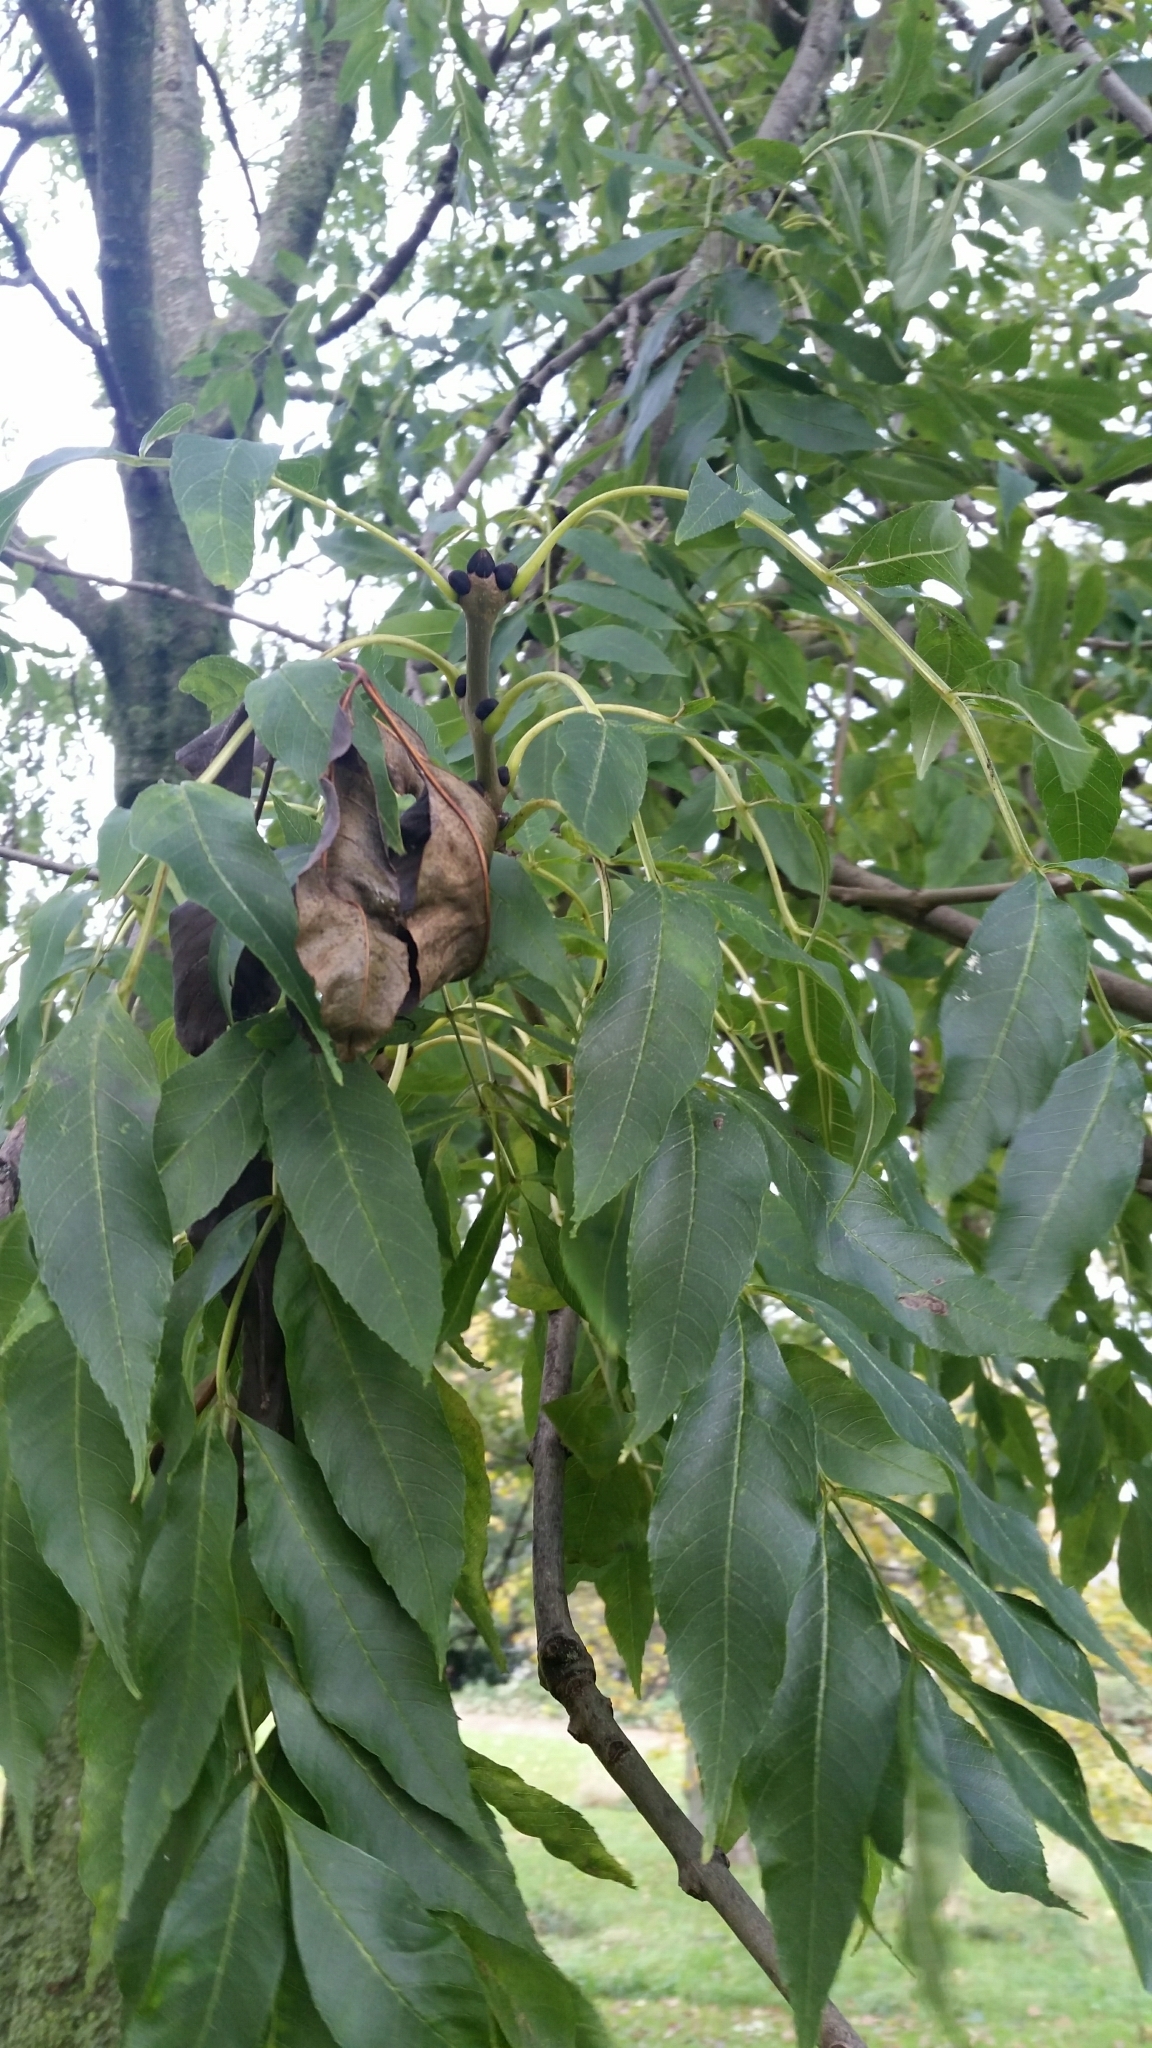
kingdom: Plantae
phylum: Tracheophyta
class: Magnoliopsida
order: Lamiales
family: Oleaceae
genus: Fraxinus
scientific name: Fraxinus excelsior
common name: European ash
